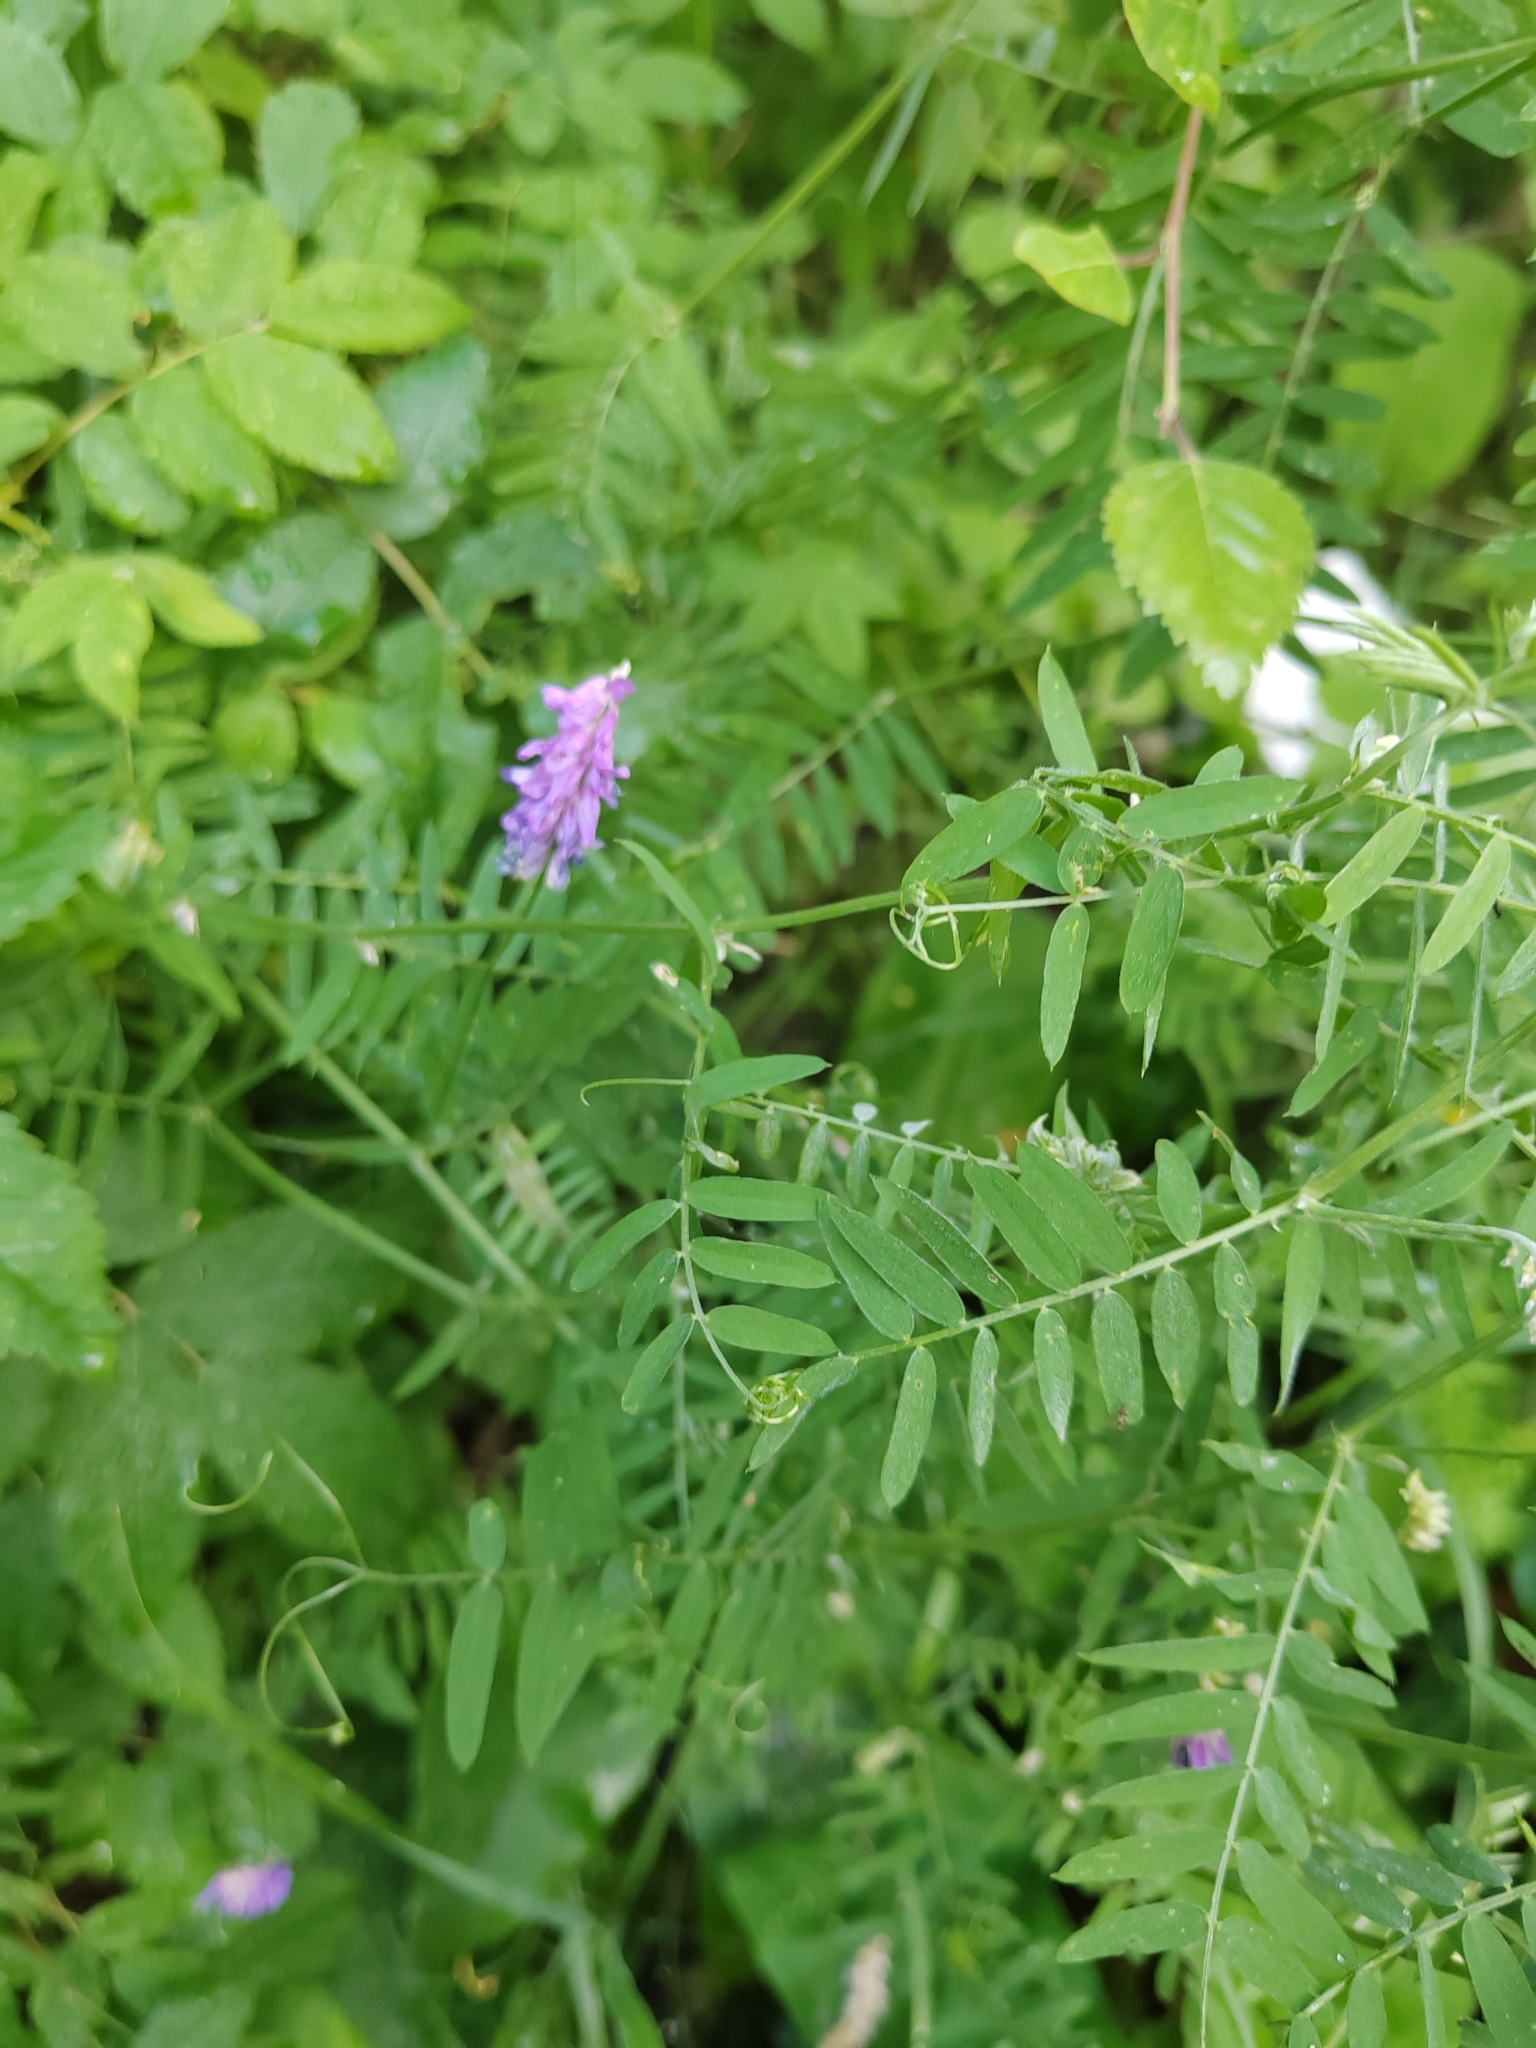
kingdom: Plantae
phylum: Tracheophyta
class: Magnoliopsida
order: Fabales
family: Fabaceae
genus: Vicia
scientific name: Vicia cracca
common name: Bird vetch
